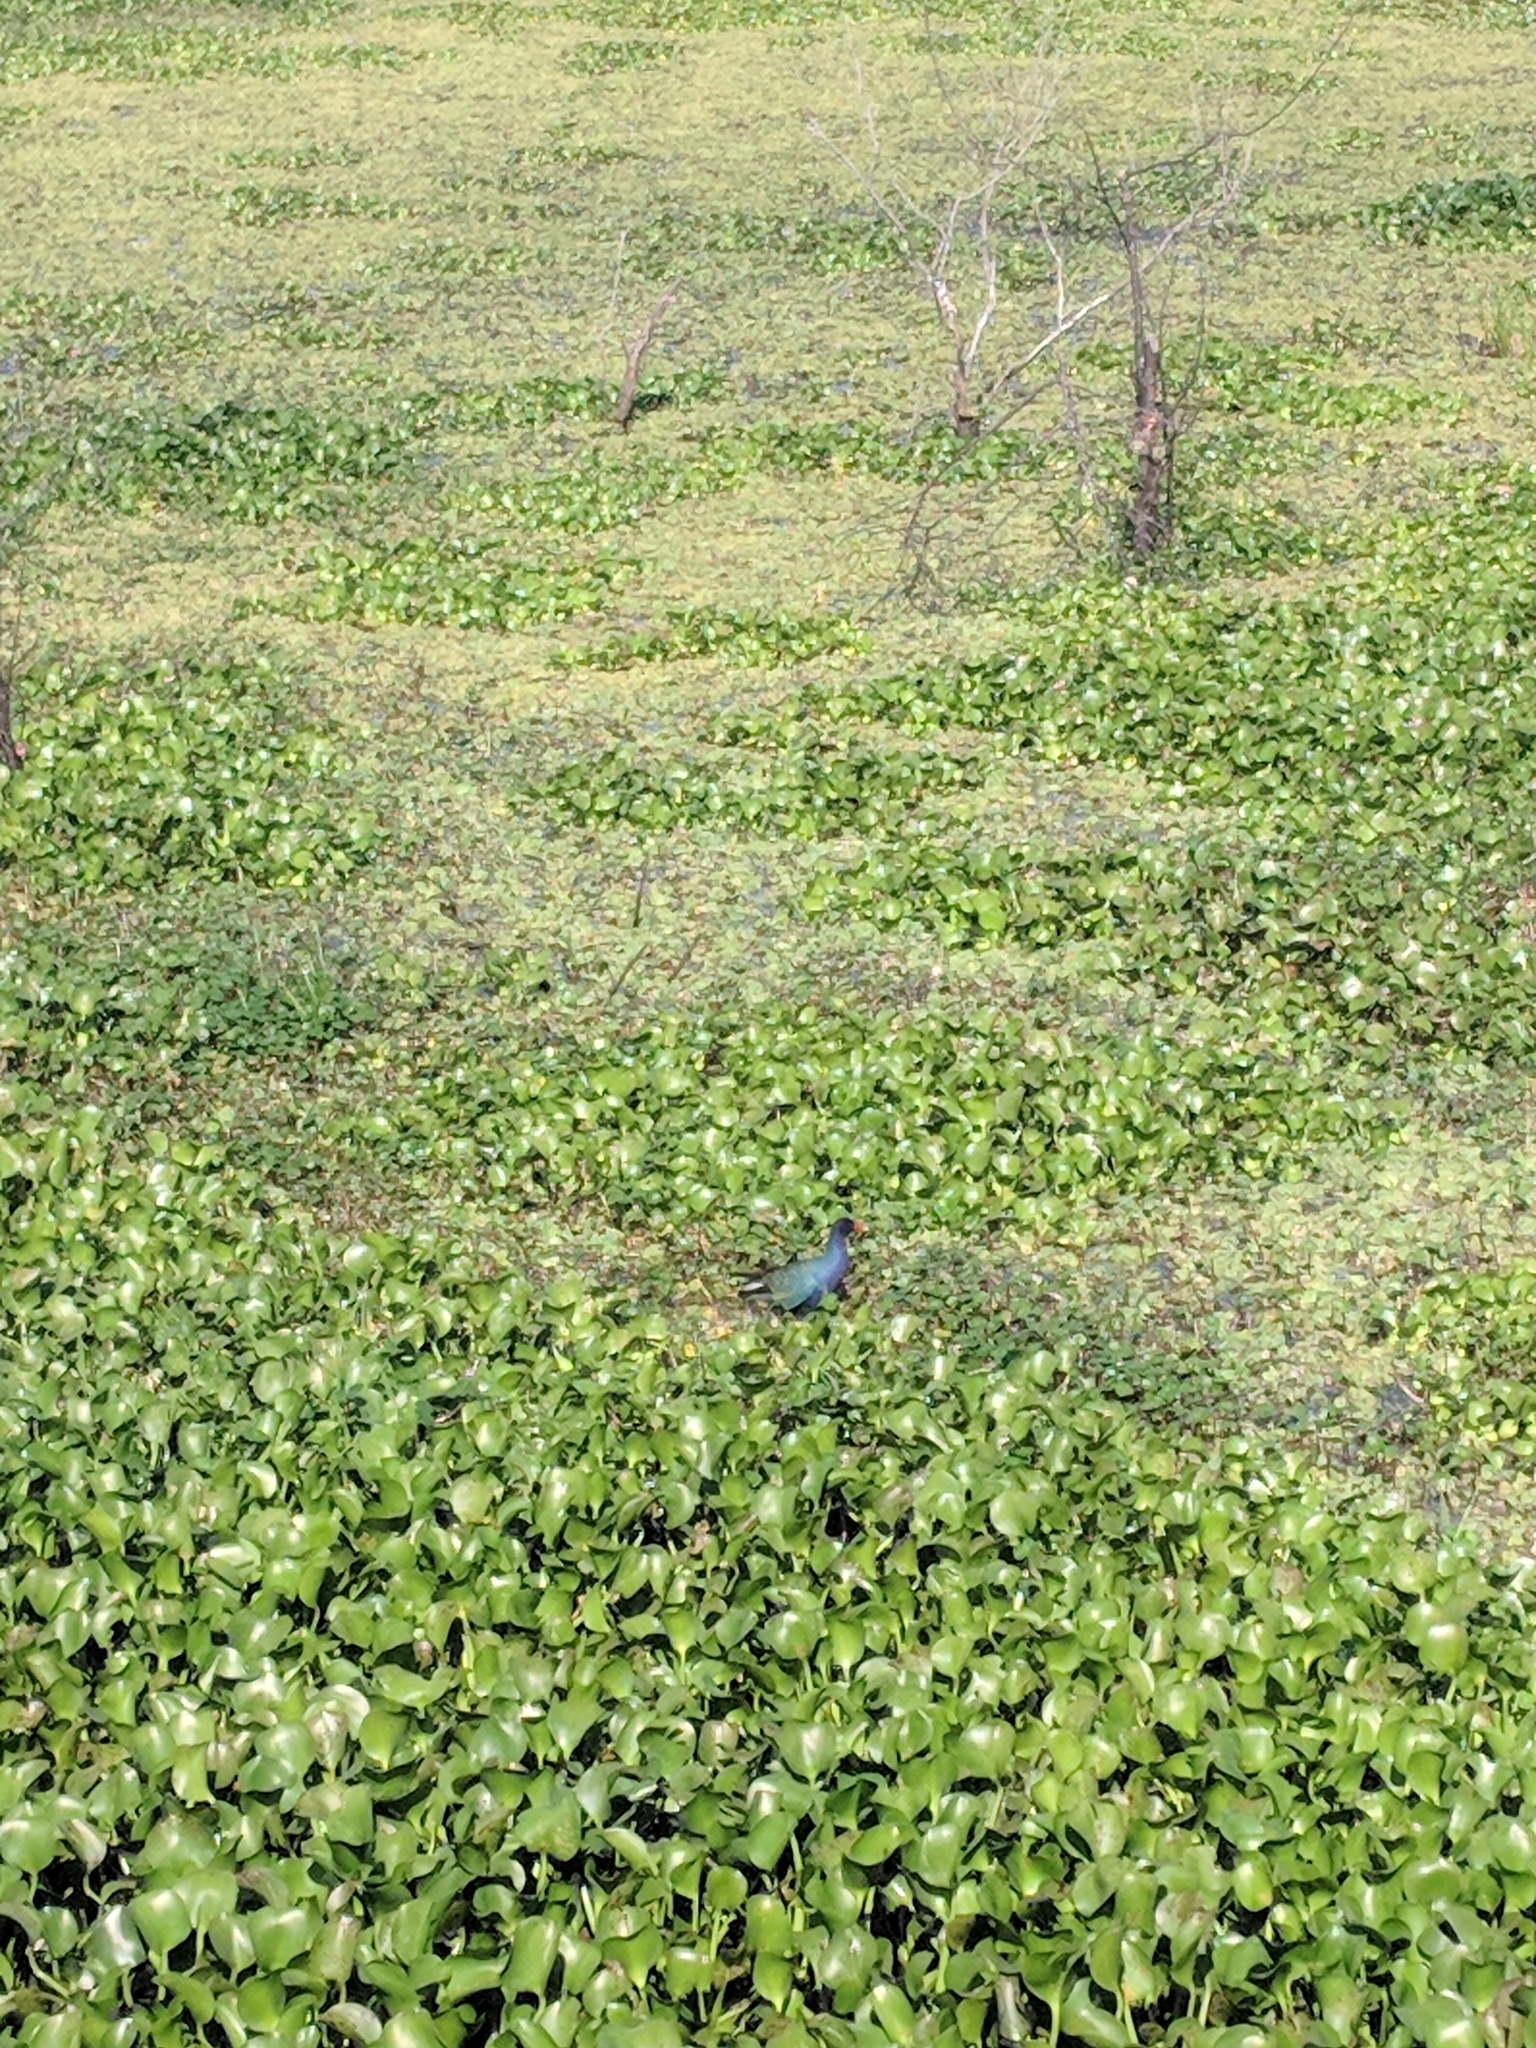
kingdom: Animalia
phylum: Chordata
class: Aves
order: Gruiformes
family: Rallidae
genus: Porphyrio
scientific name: Porphyrio martinica
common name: Purple gallinule
